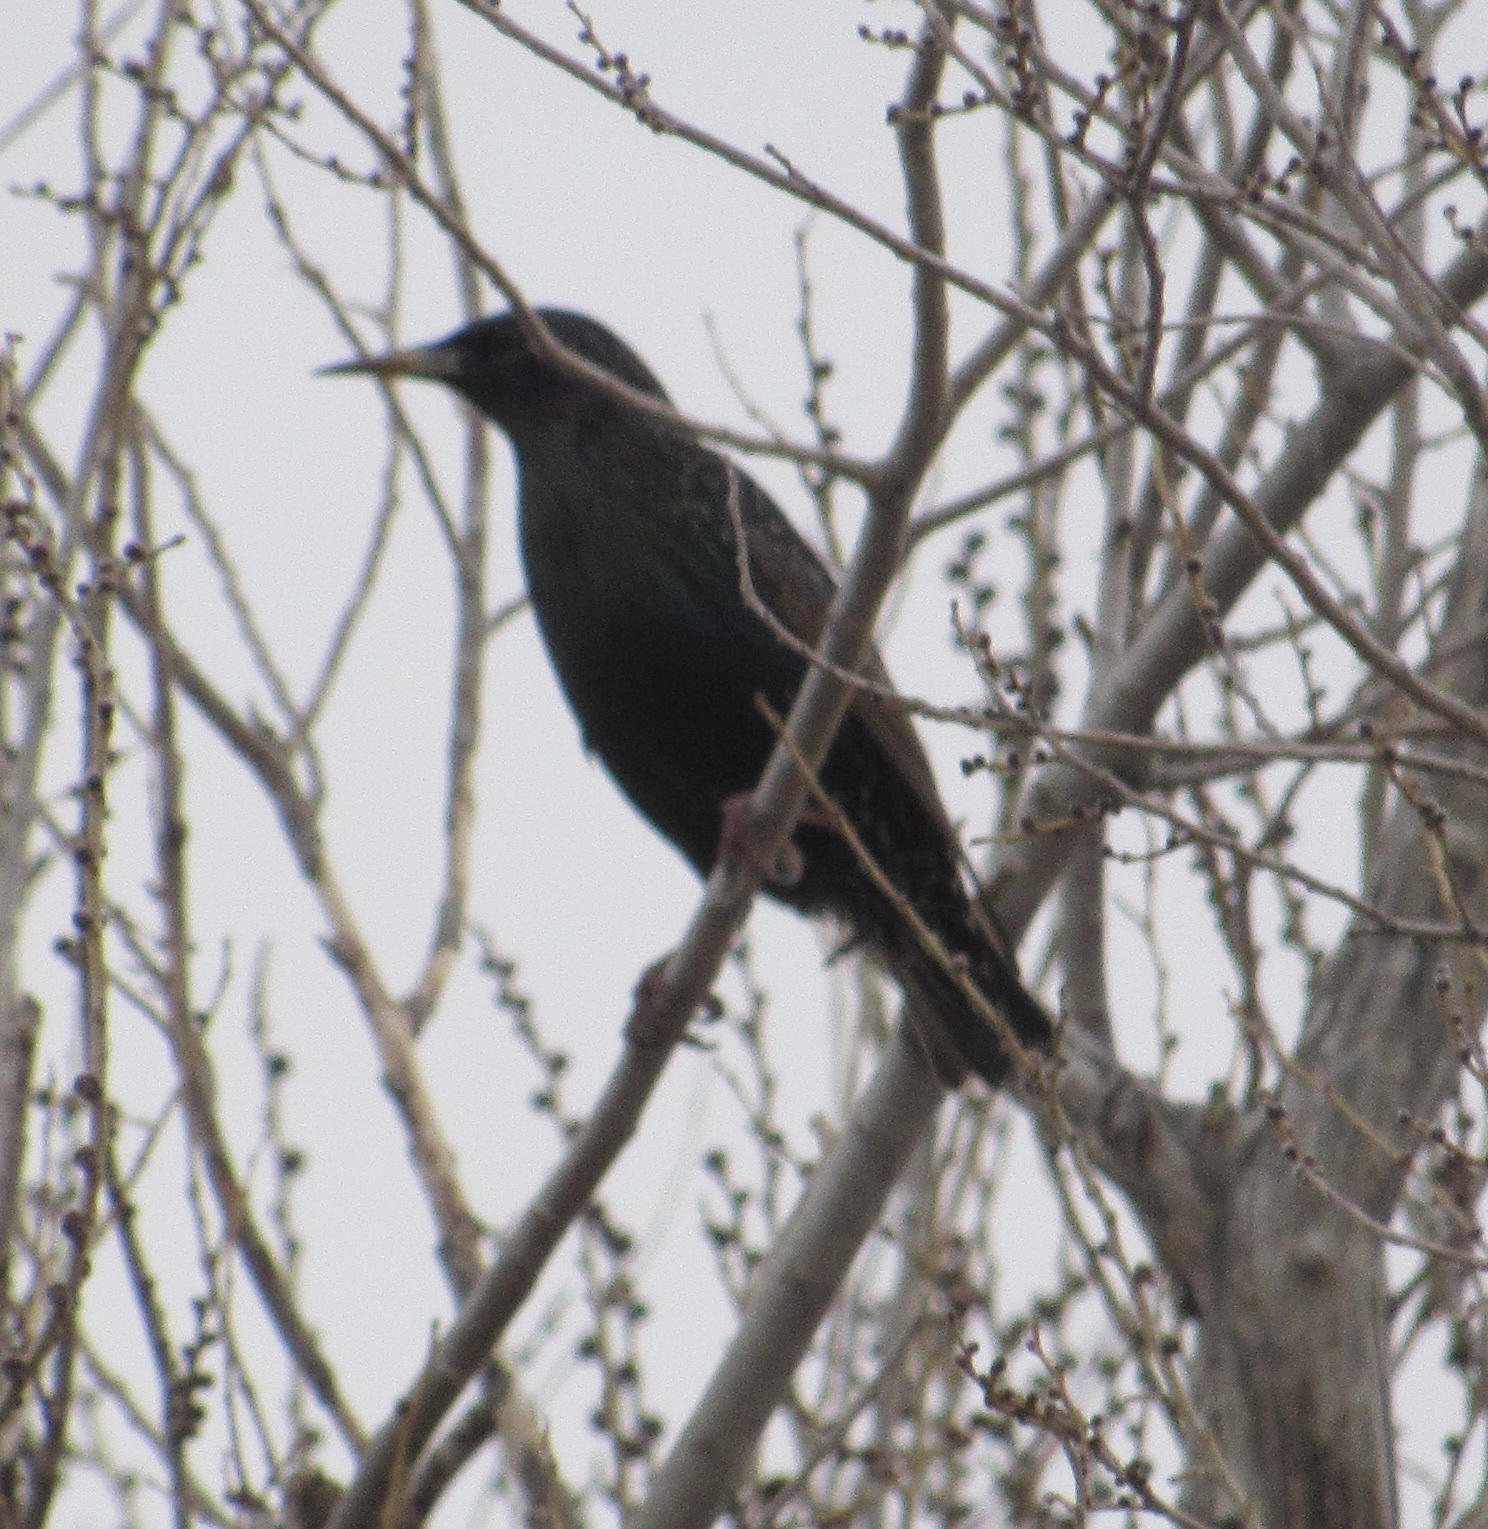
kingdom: Animalia
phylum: Chordata
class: Aves
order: Passeriformes
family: Sturnidae
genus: Sturnus
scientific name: Sturnus vulgaris
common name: Common starling
